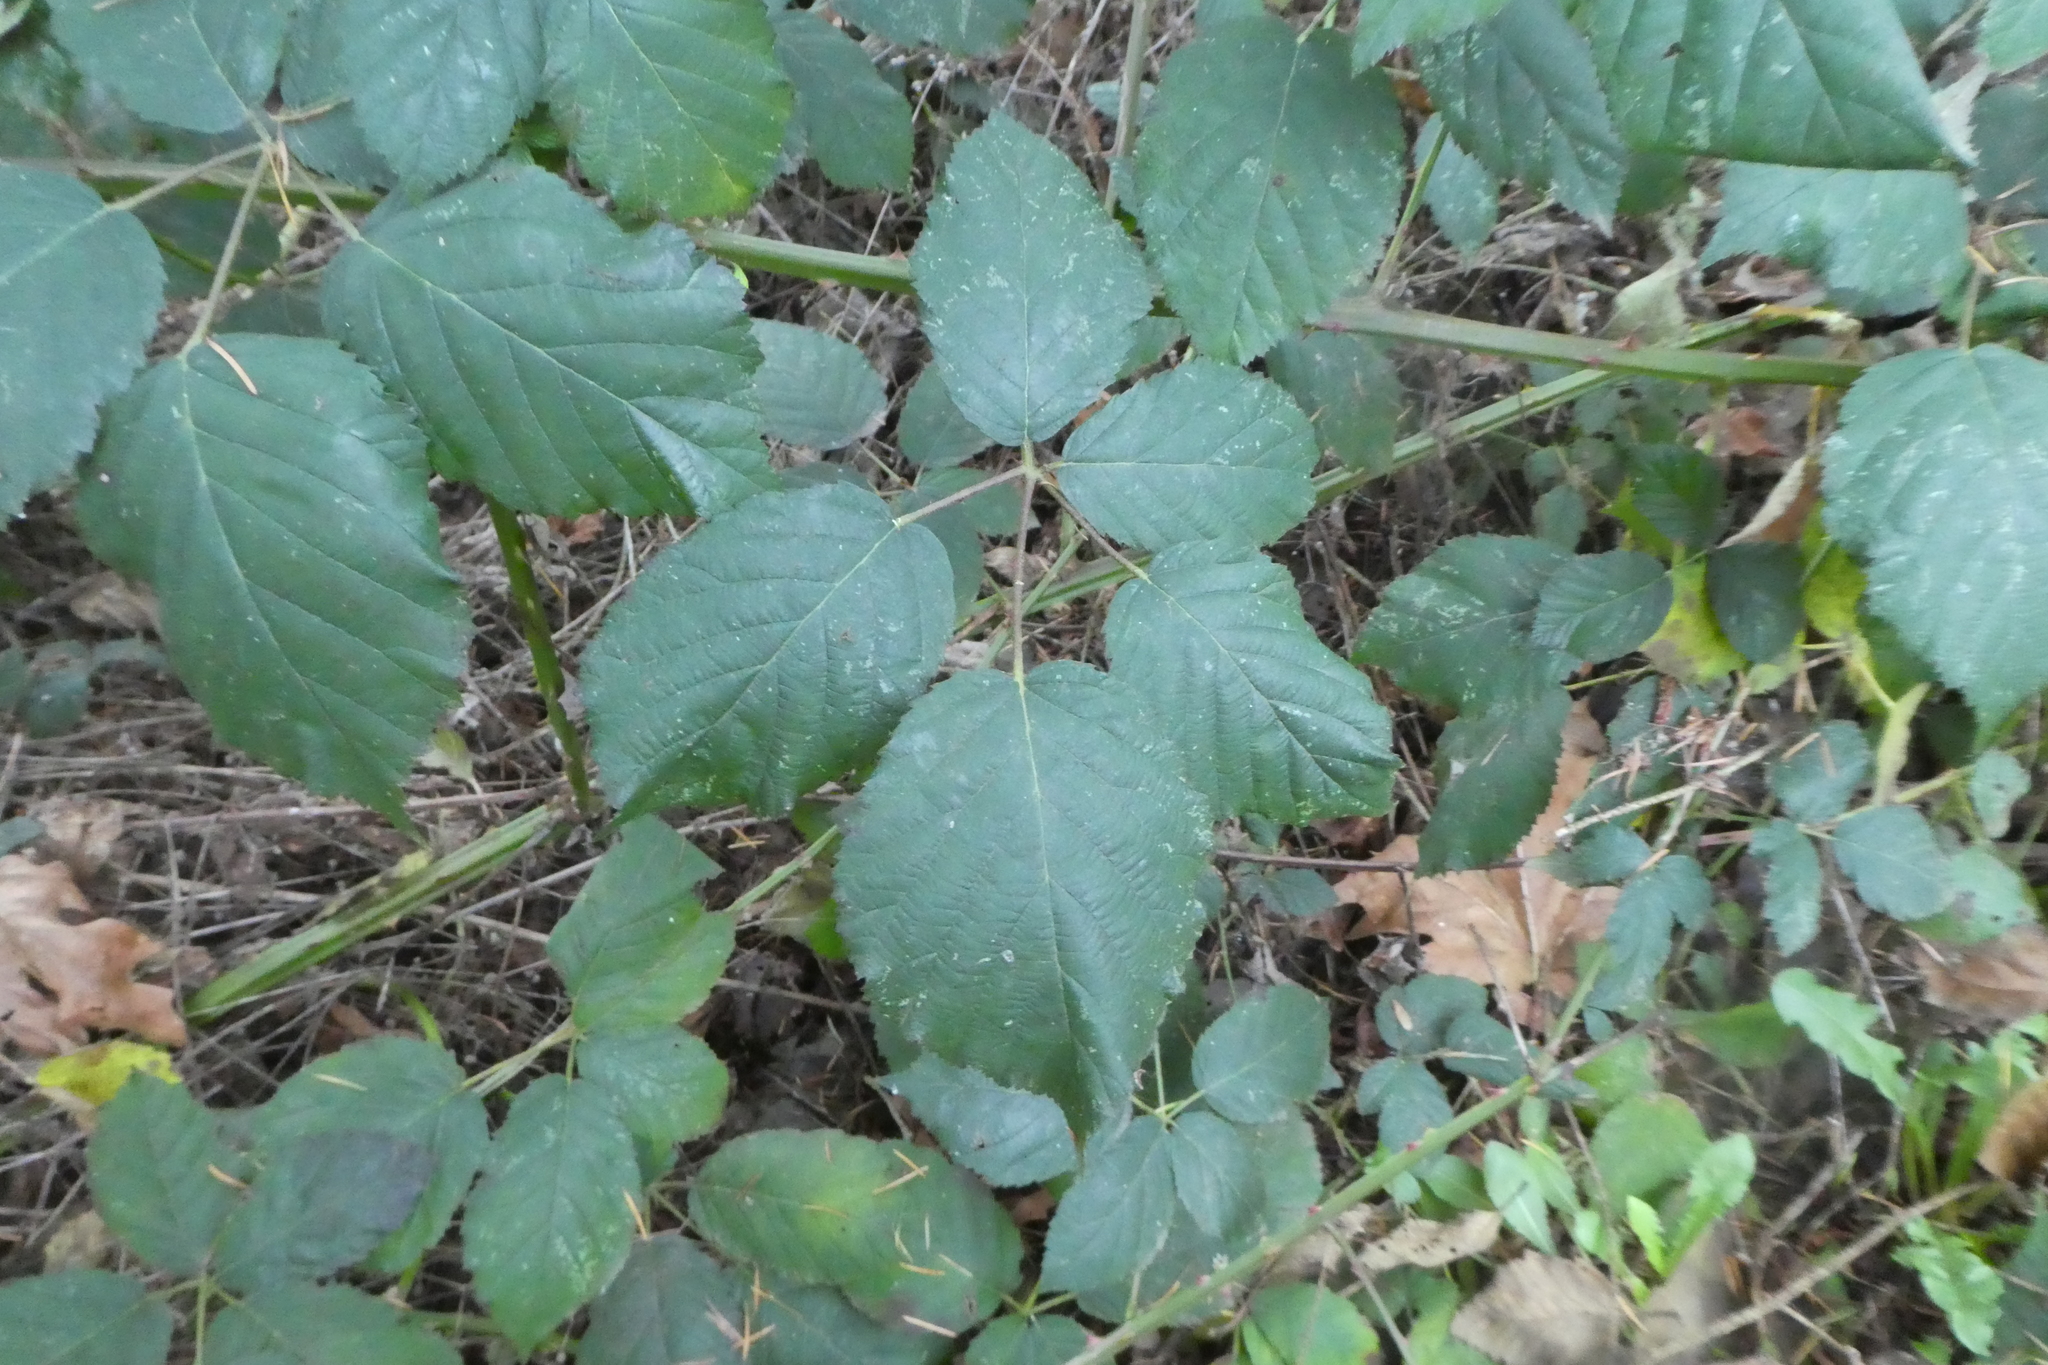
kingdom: Plantae
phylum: Tracheophyta
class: Magnoliopsida
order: Rosales
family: Rosaceae
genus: Rubus
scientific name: Rubus bifrons
